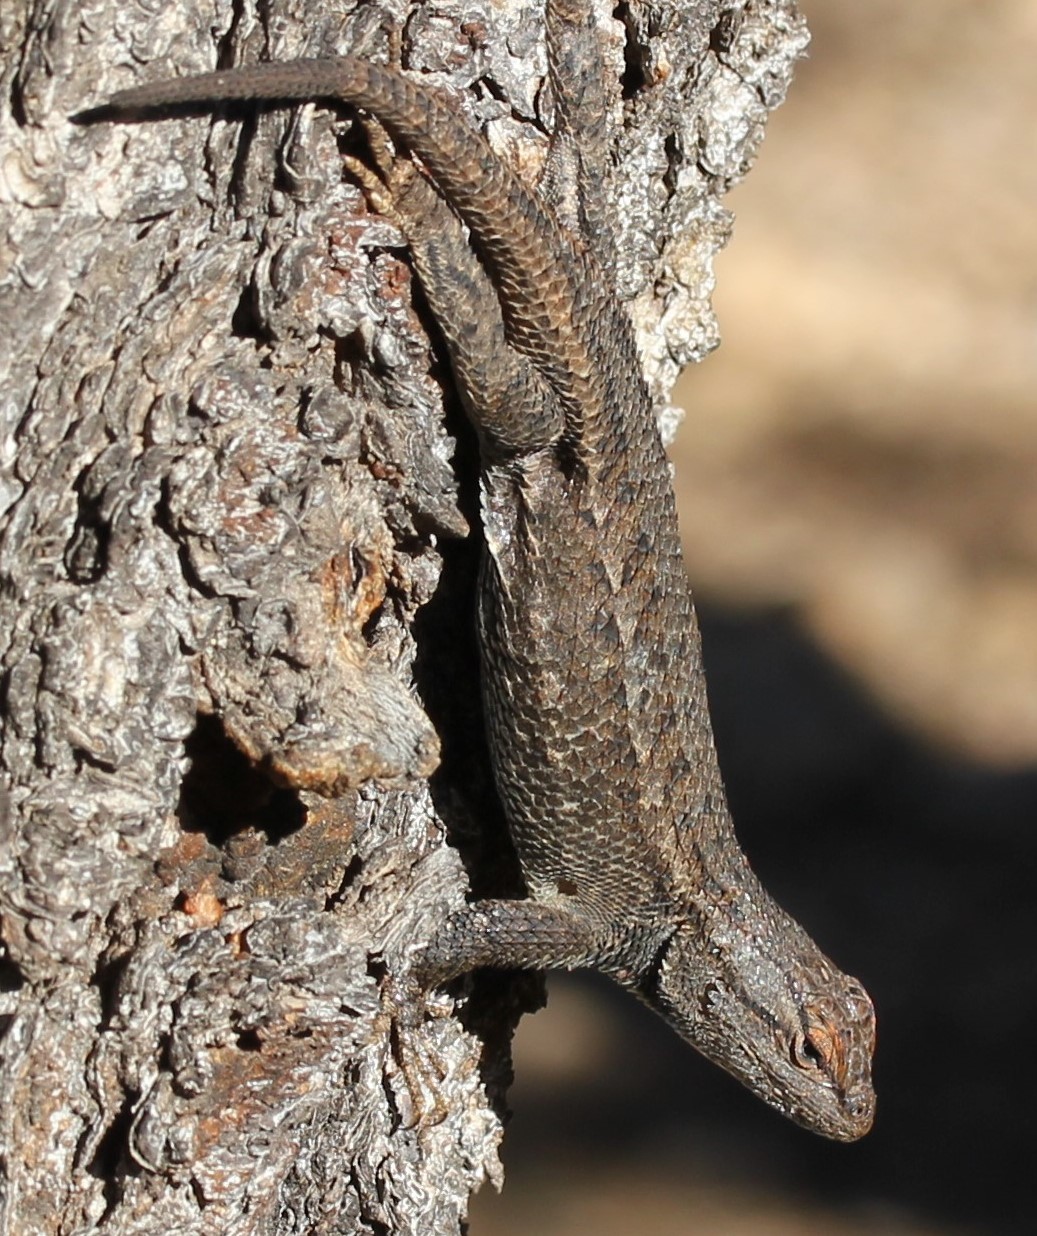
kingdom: Animalia
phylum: Chordata
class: Squamata
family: Phrynosomatidae
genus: Sceloporus
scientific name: Sceloporus tristichus
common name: Plateau fence lizard
